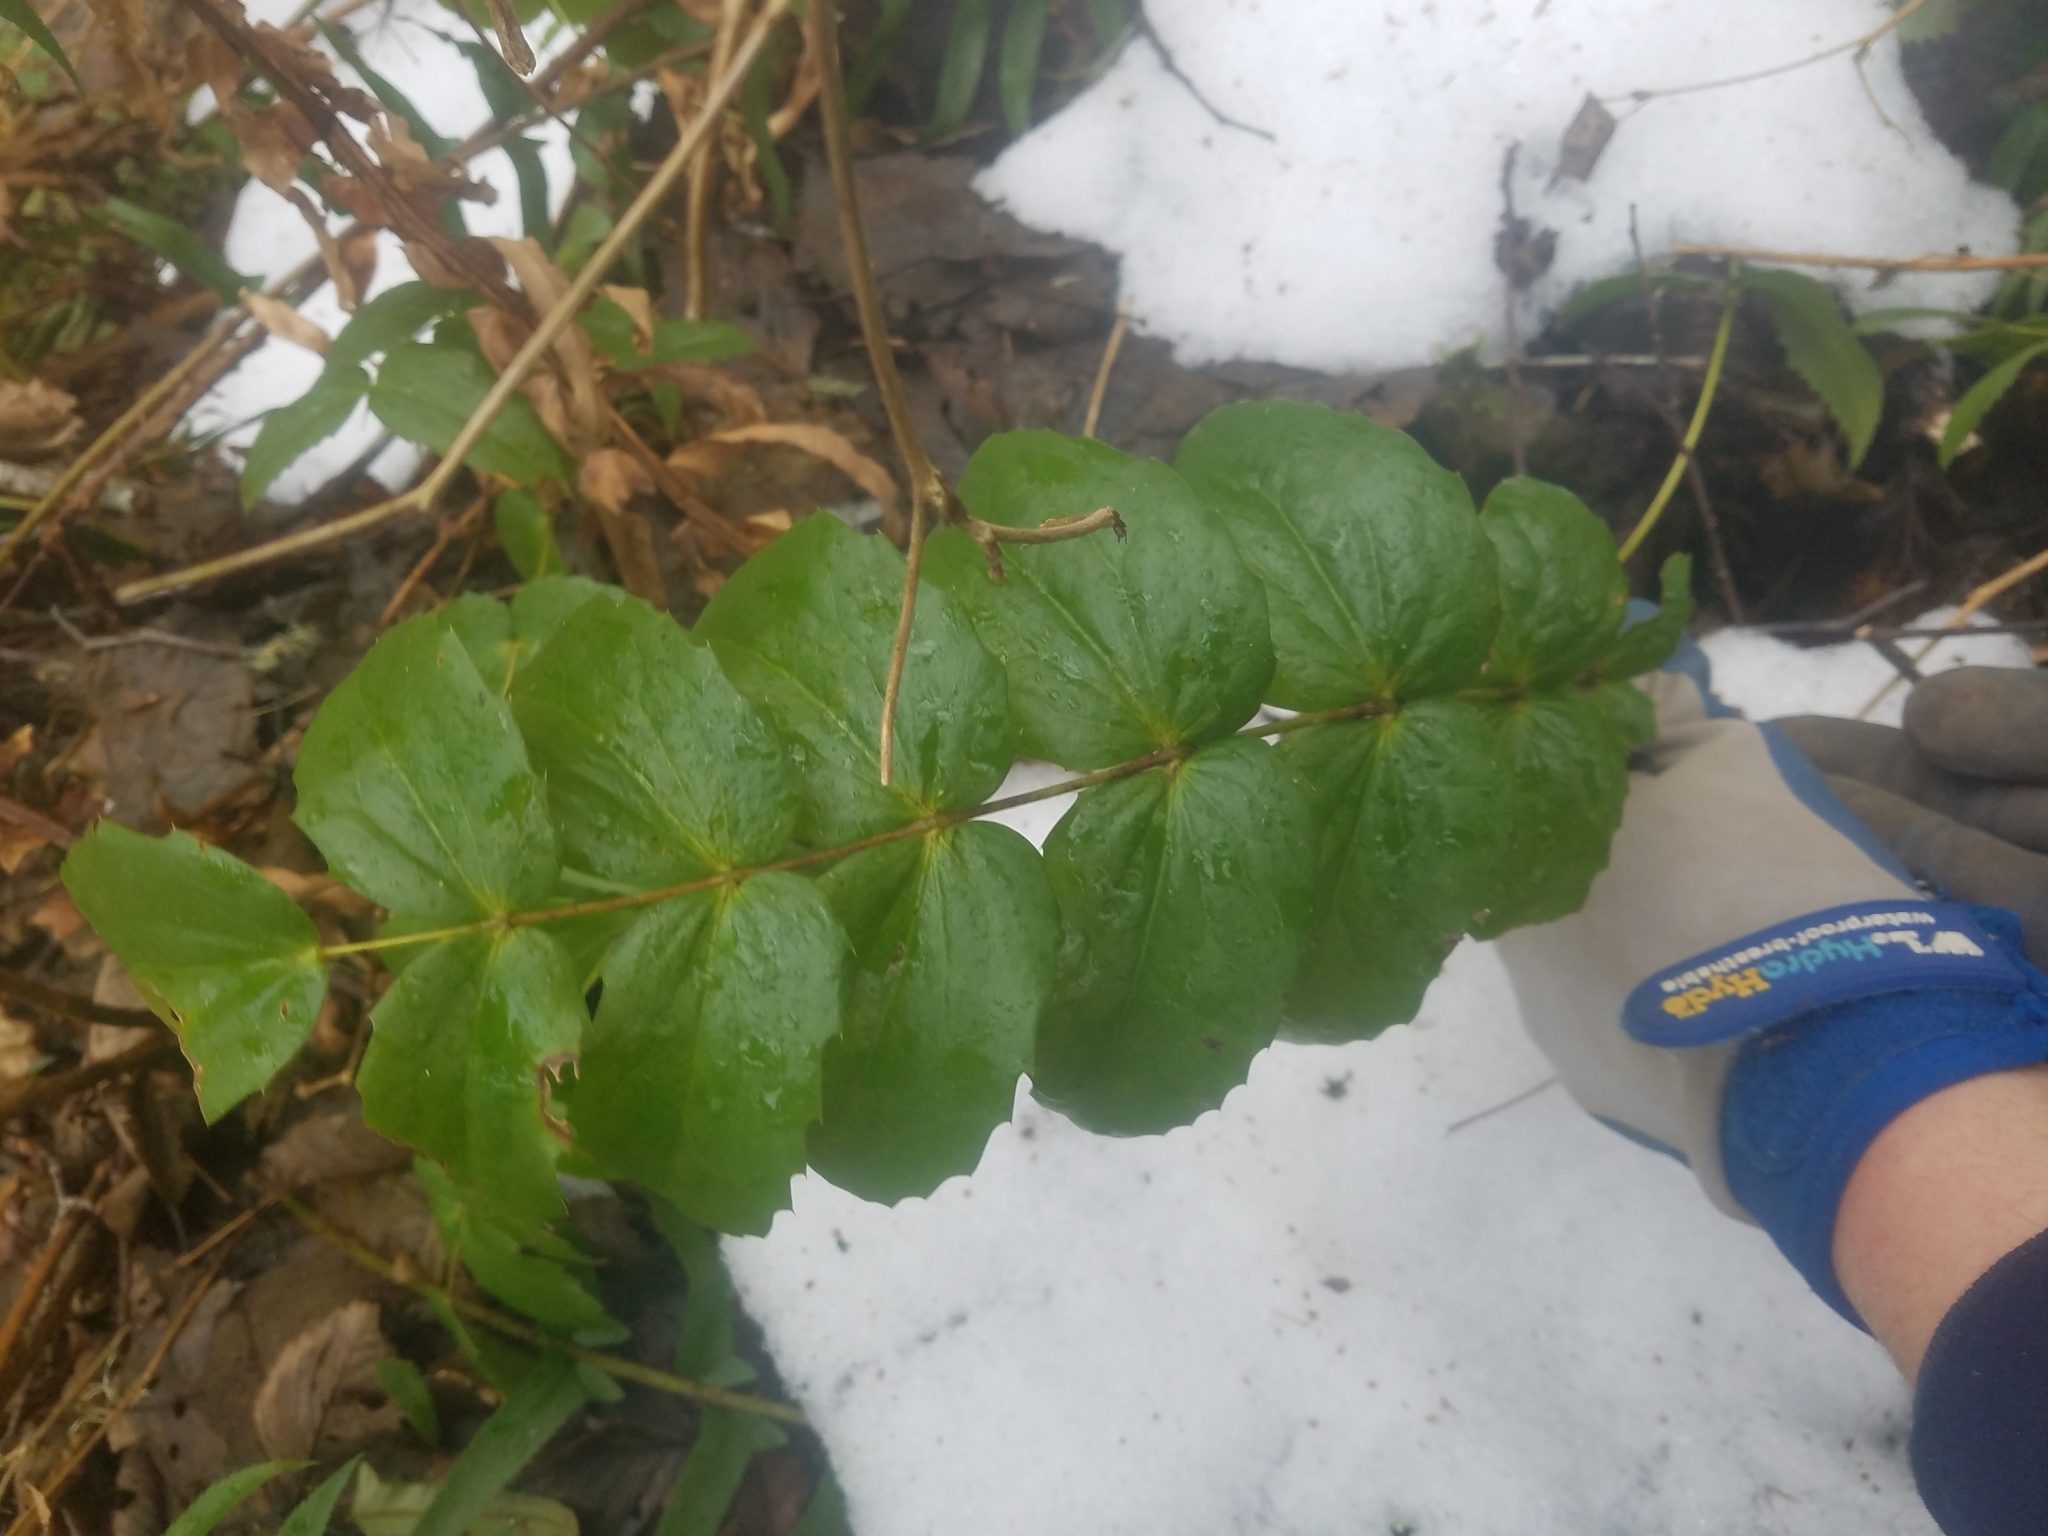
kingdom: Plantae
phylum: Tracheophyta
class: Magnoliopsida
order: Ranunculales
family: Berberidaceae
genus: Mahonia
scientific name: Mahonia nervosa
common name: Cascade oregon-grape
